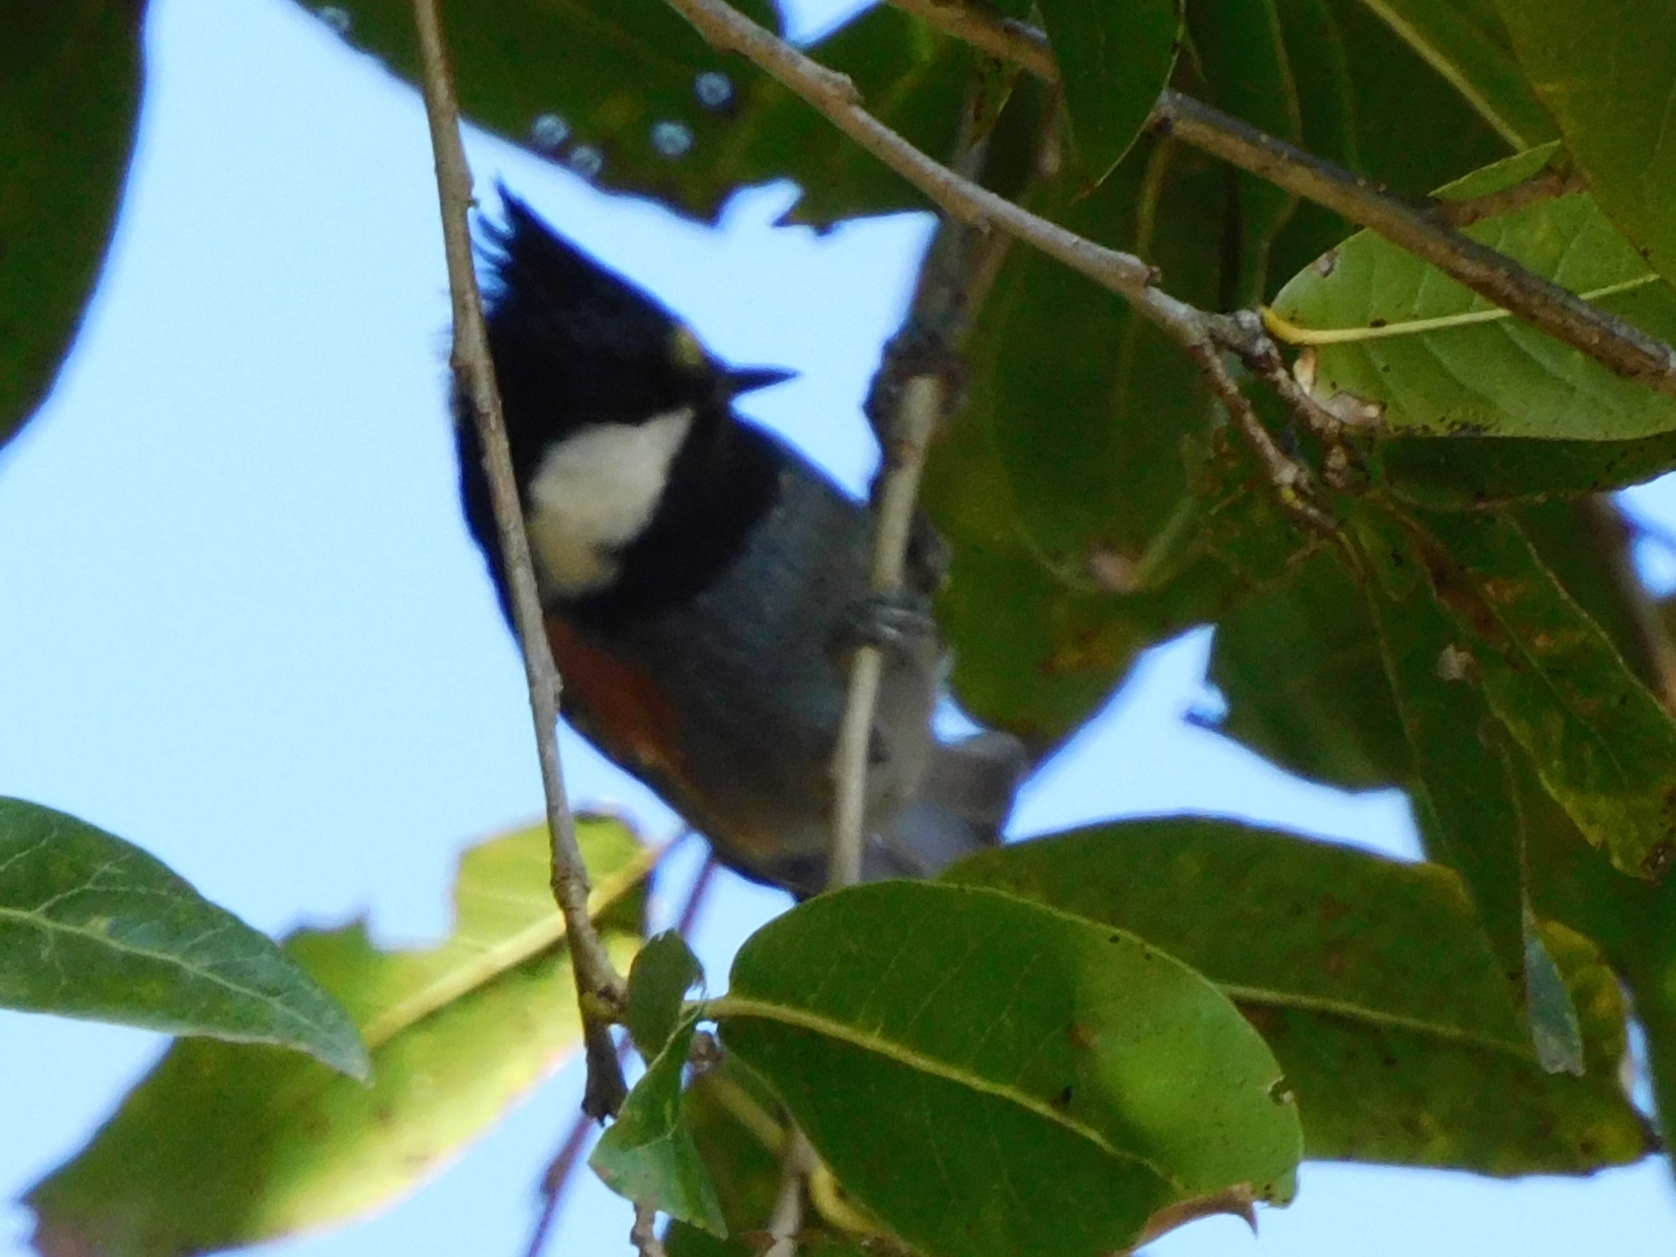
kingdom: Animalia
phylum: Chordata
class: Aves
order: Passeriformes
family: Paridae
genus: Periparus
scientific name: Periparus ater
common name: Coal tit
